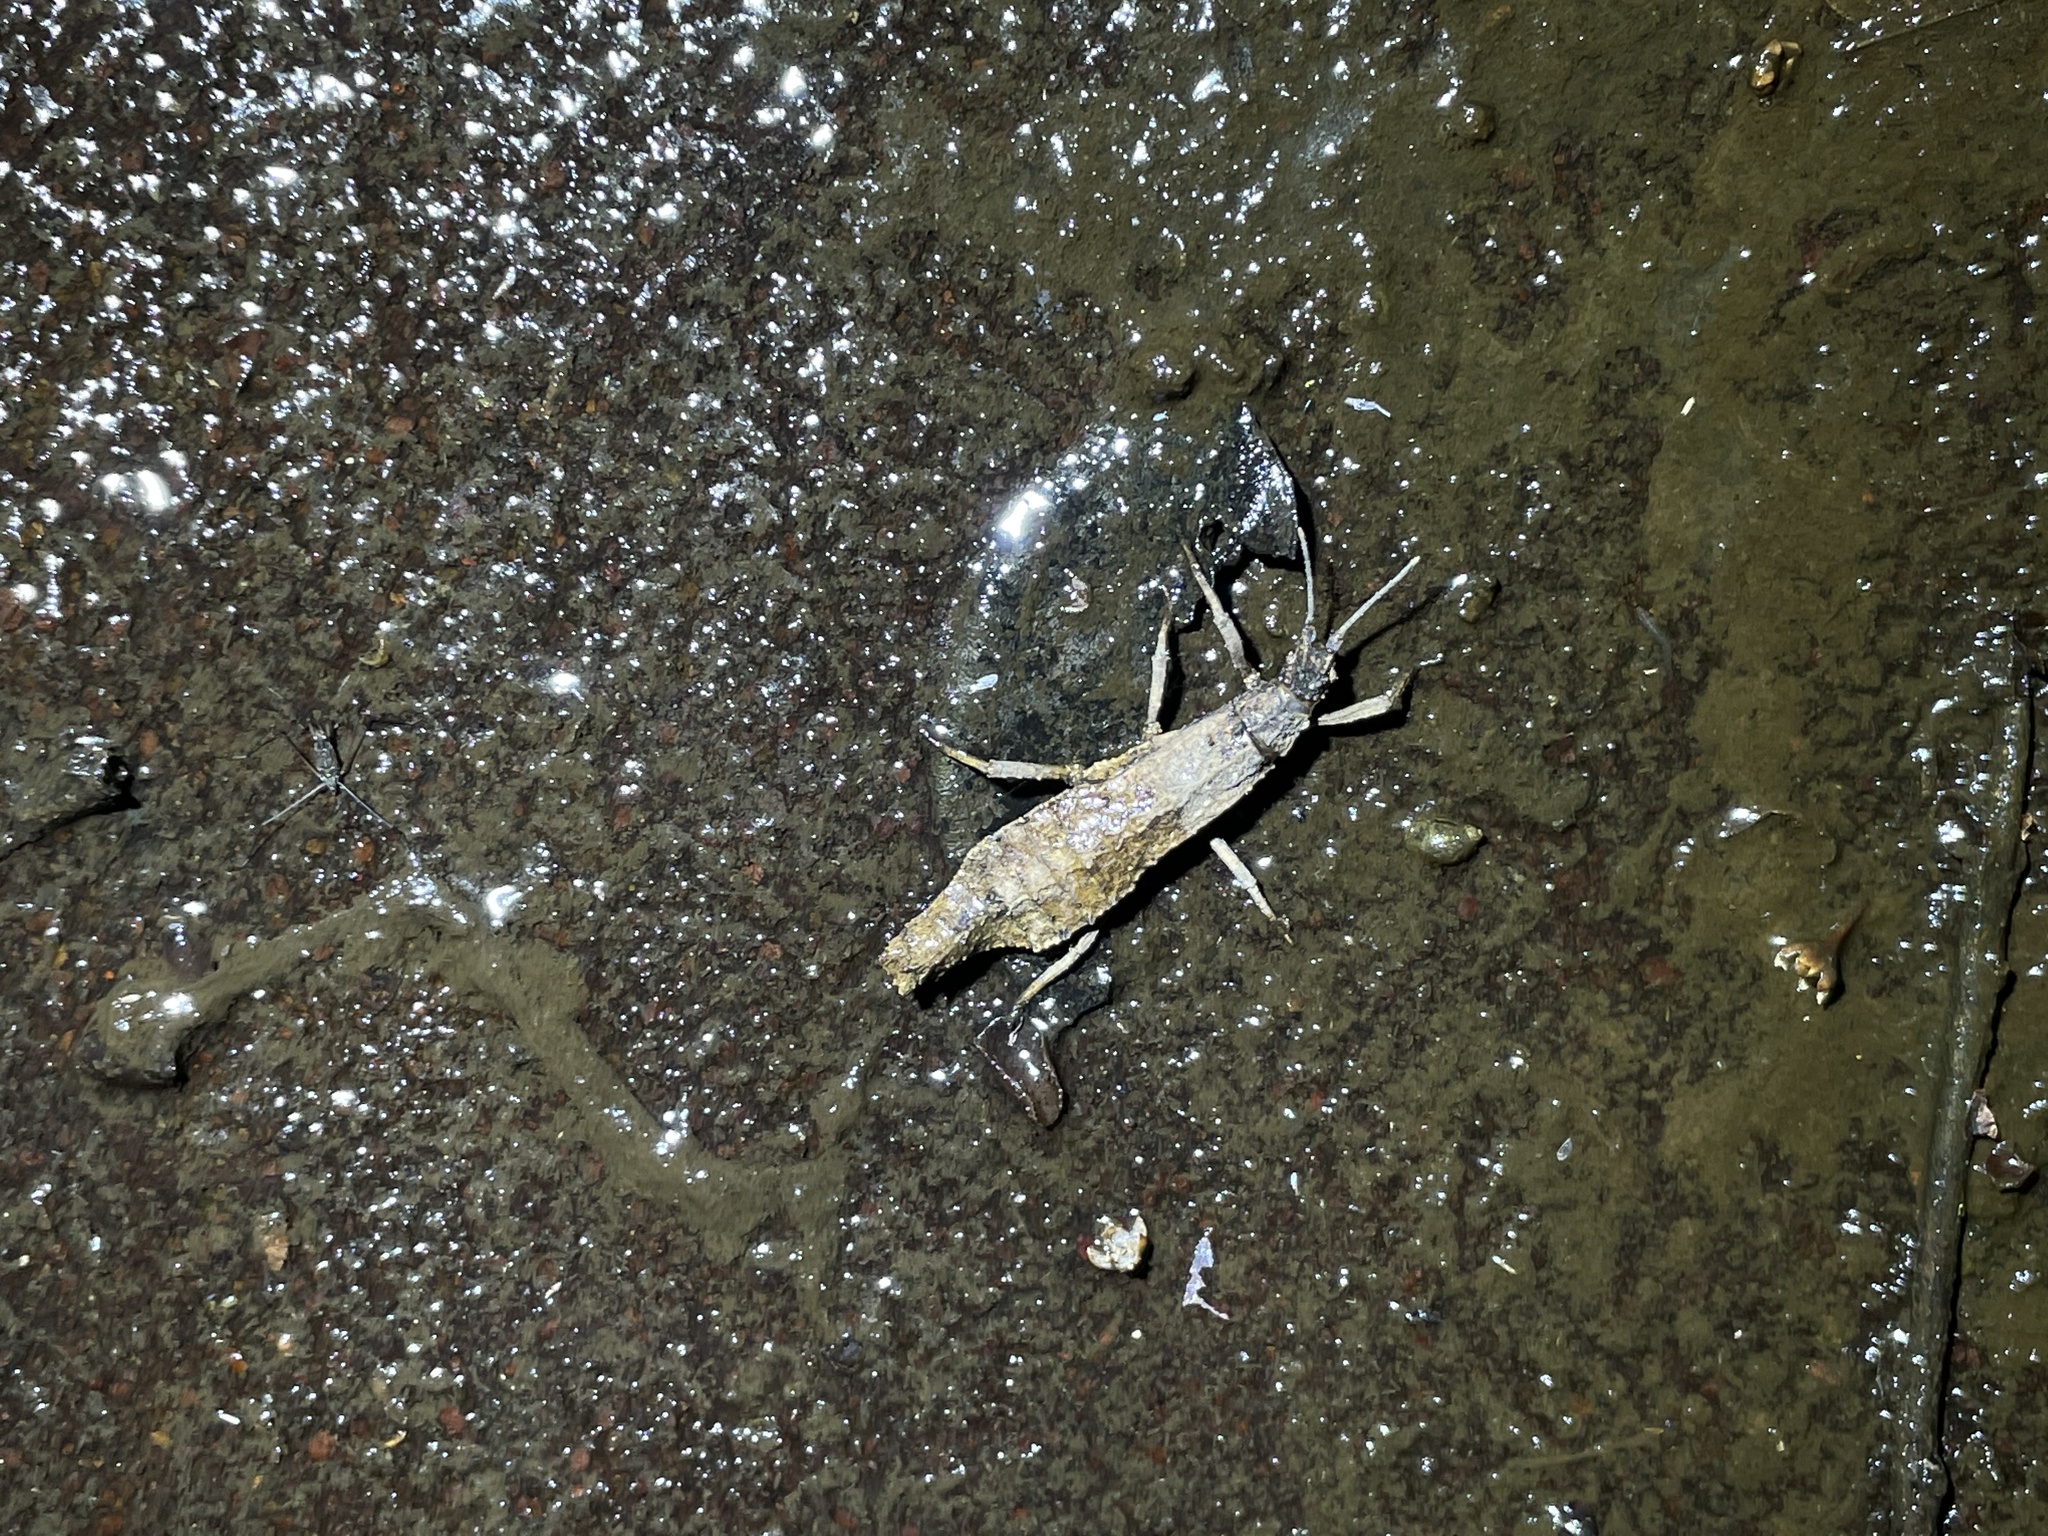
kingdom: Animalia
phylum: Arthropoda
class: Insecta
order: Phasmida
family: Heteropterygidae
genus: Planispectrum
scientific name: Planispectrum hongkongense
